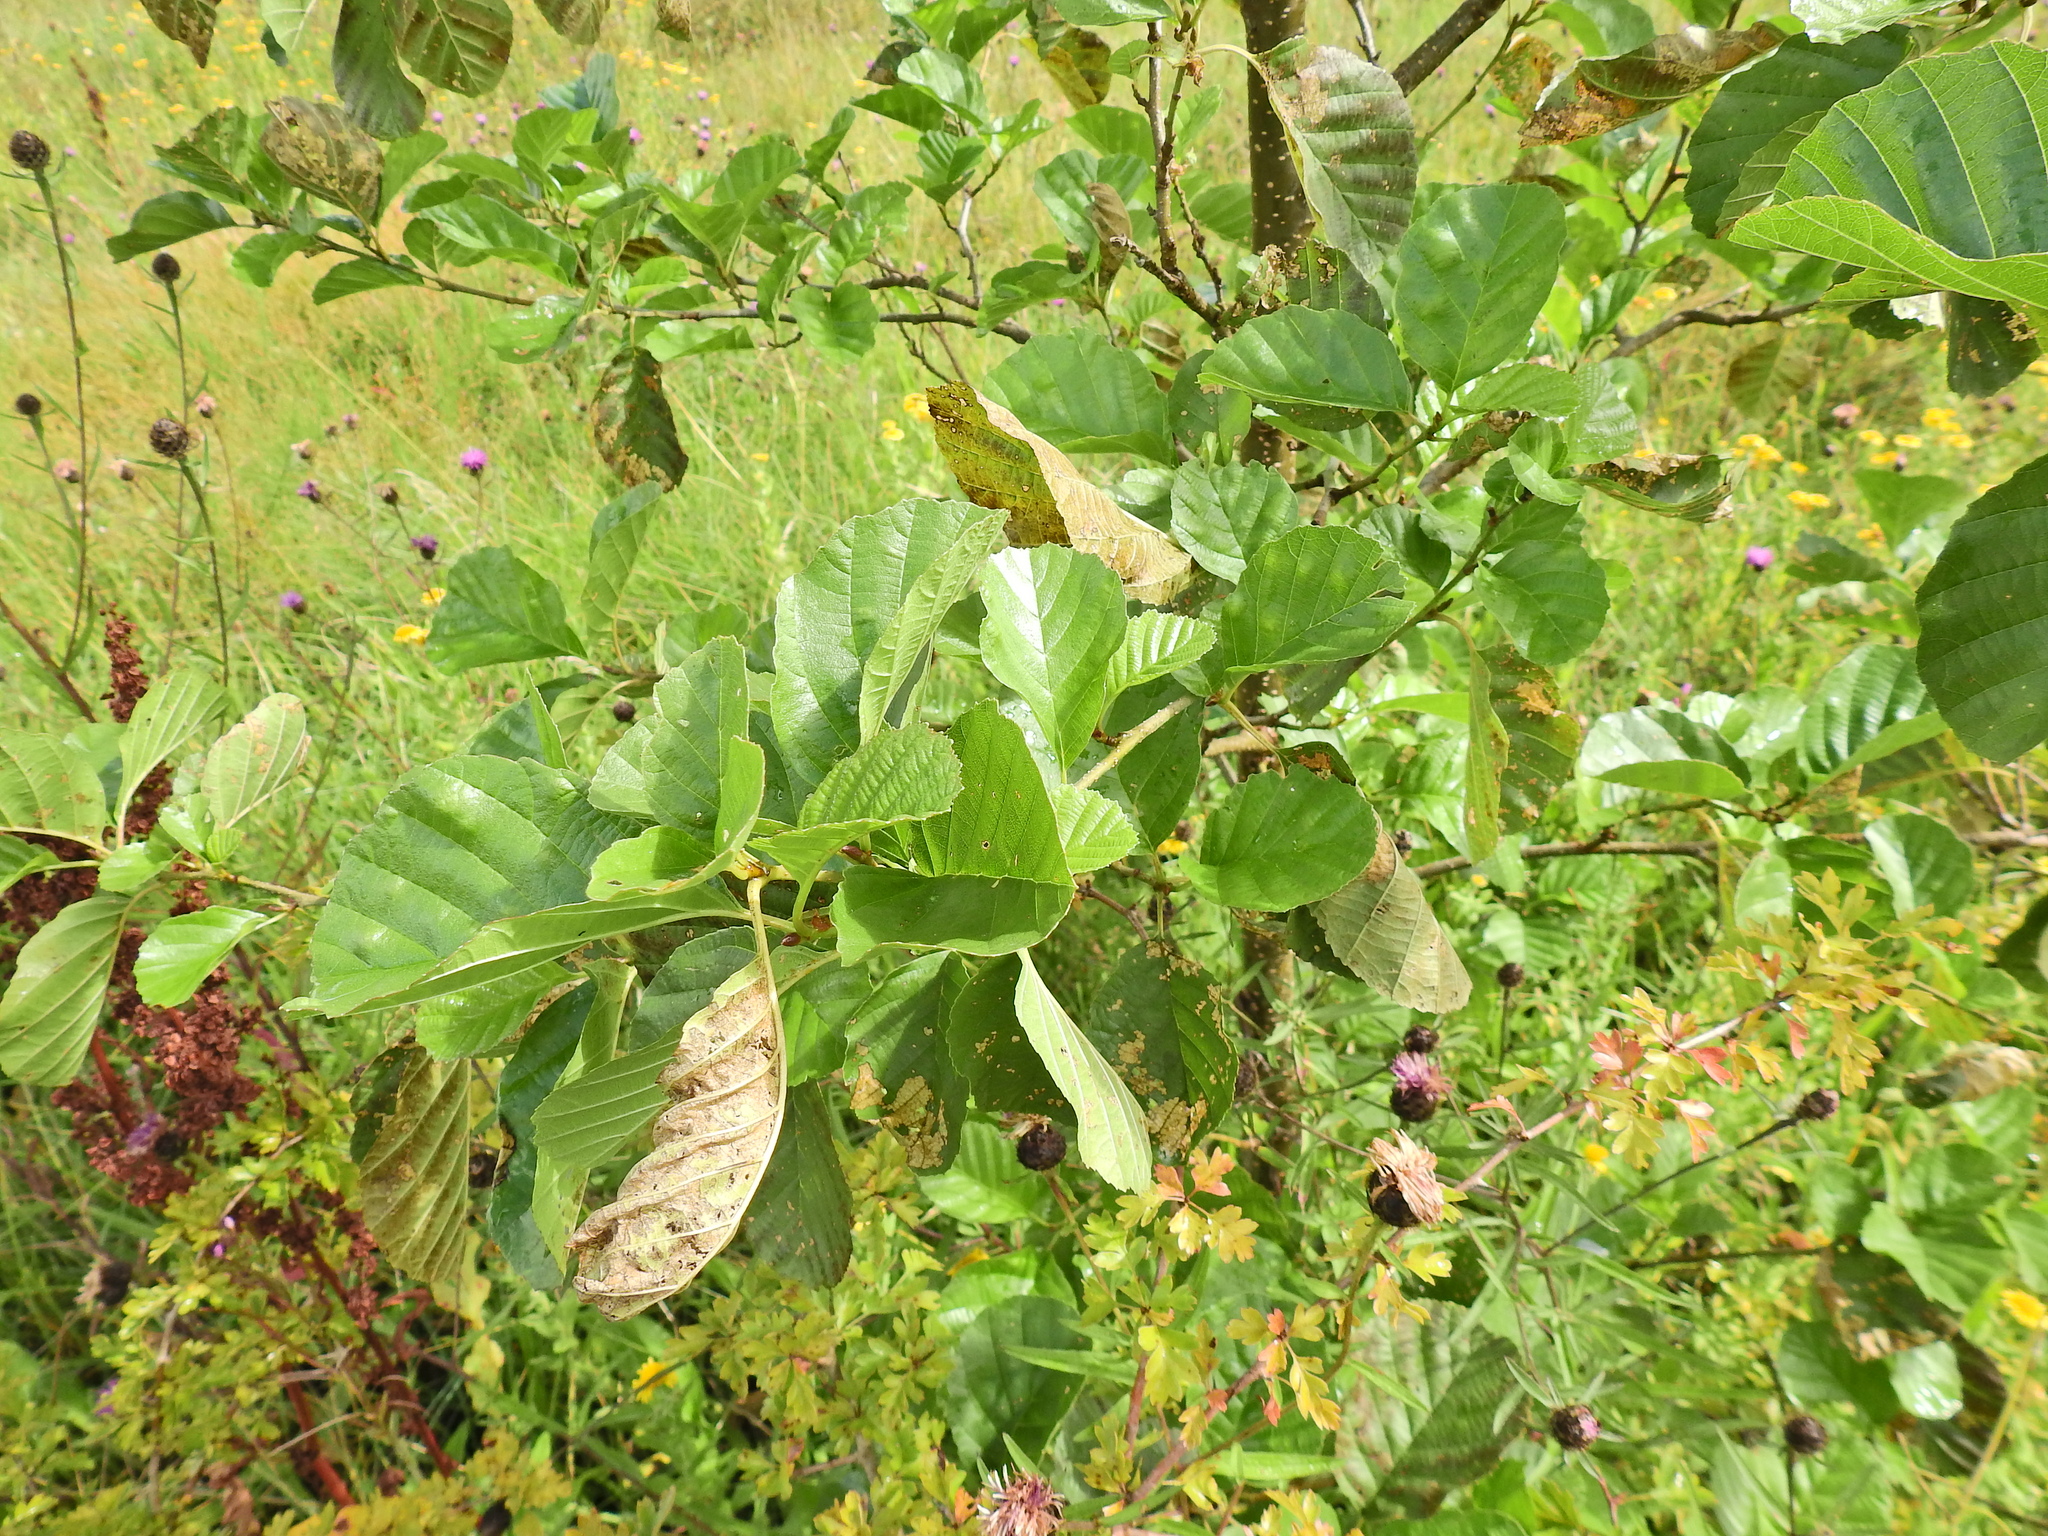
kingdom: Plantae
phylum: Tracheophyta
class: Magnoliopsida
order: Fagales
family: Betulaceae
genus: Alnus
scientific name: Alnus glutinosa
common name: Black alder
